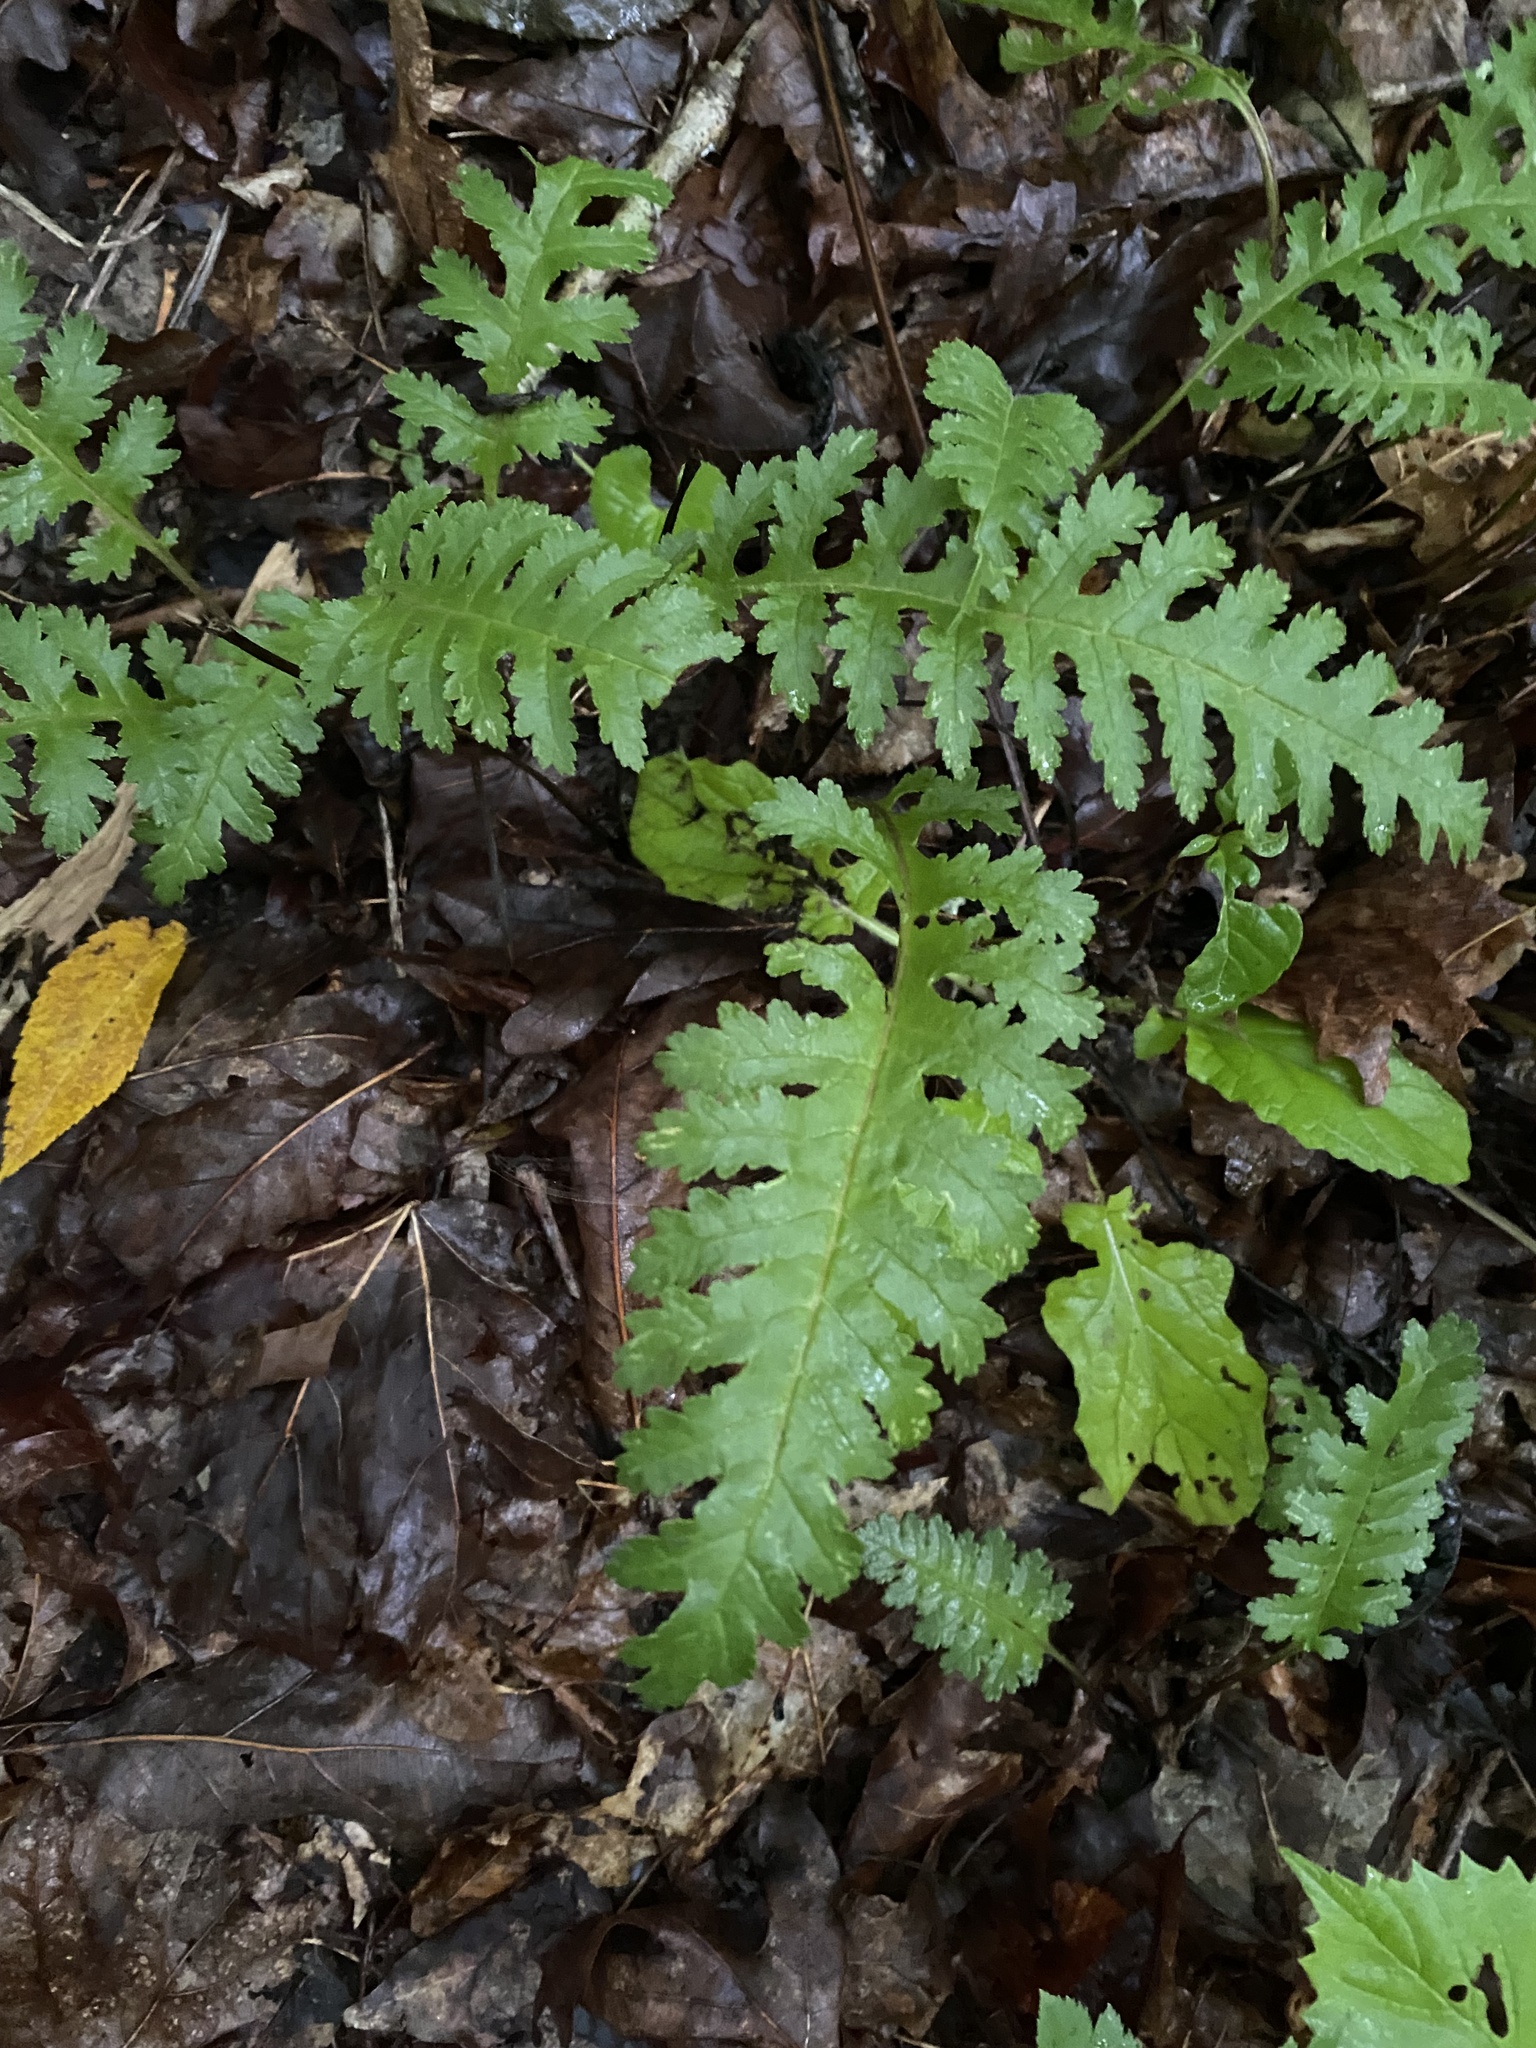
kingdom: Plantae
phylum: Tracheophyta
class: Magnoliopsida
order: Lamiales
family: Orobanchaceae
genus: Pedicularis
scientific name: Pedicularis canadensis
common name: Early lousewort
